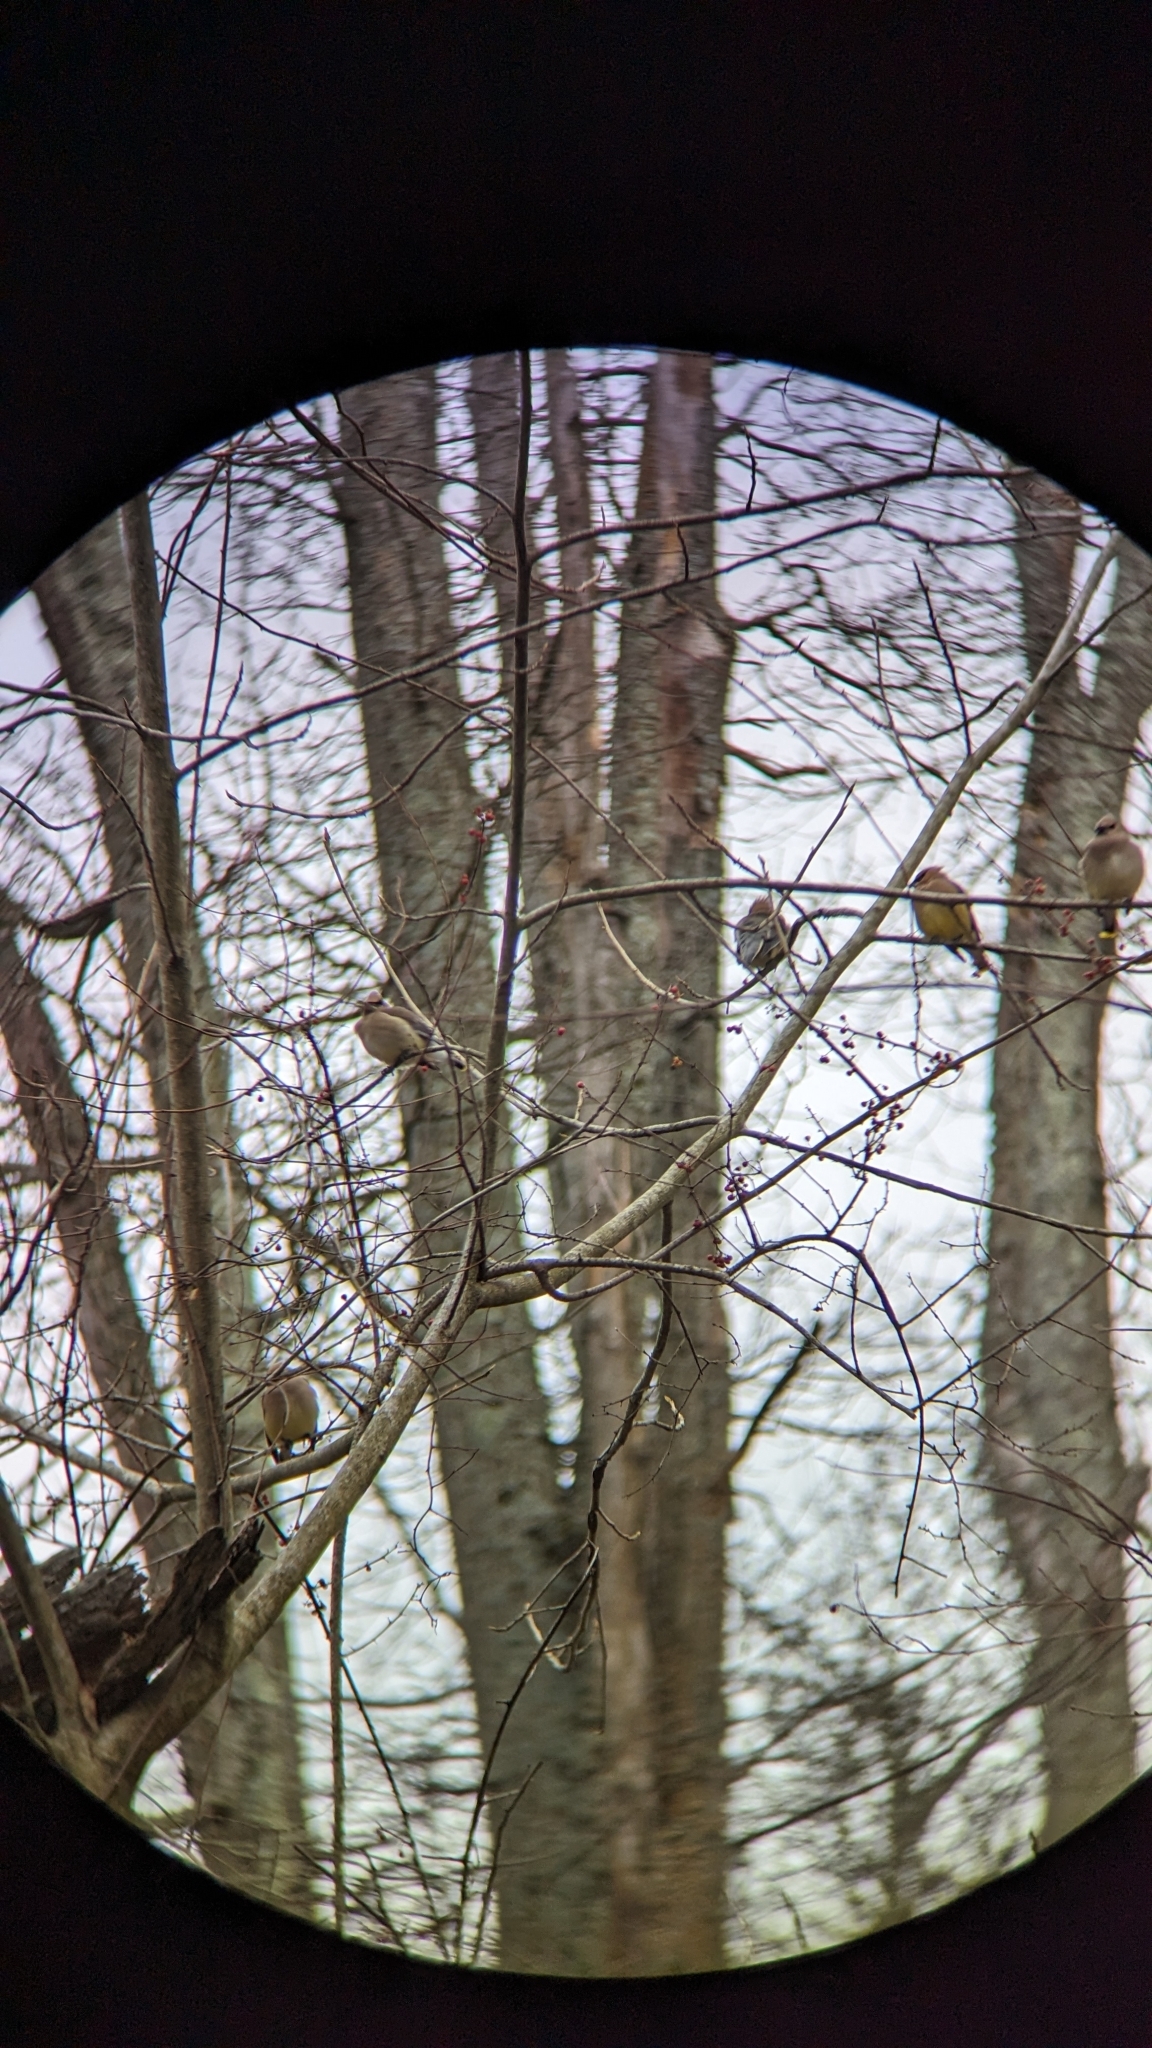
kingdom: Animalia
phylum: Chordata
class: Aves
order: Passeriformes
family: Bombycillidae
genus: Bombycilla
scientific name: Bombycilla cedrorum
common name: Cedar waxwing
